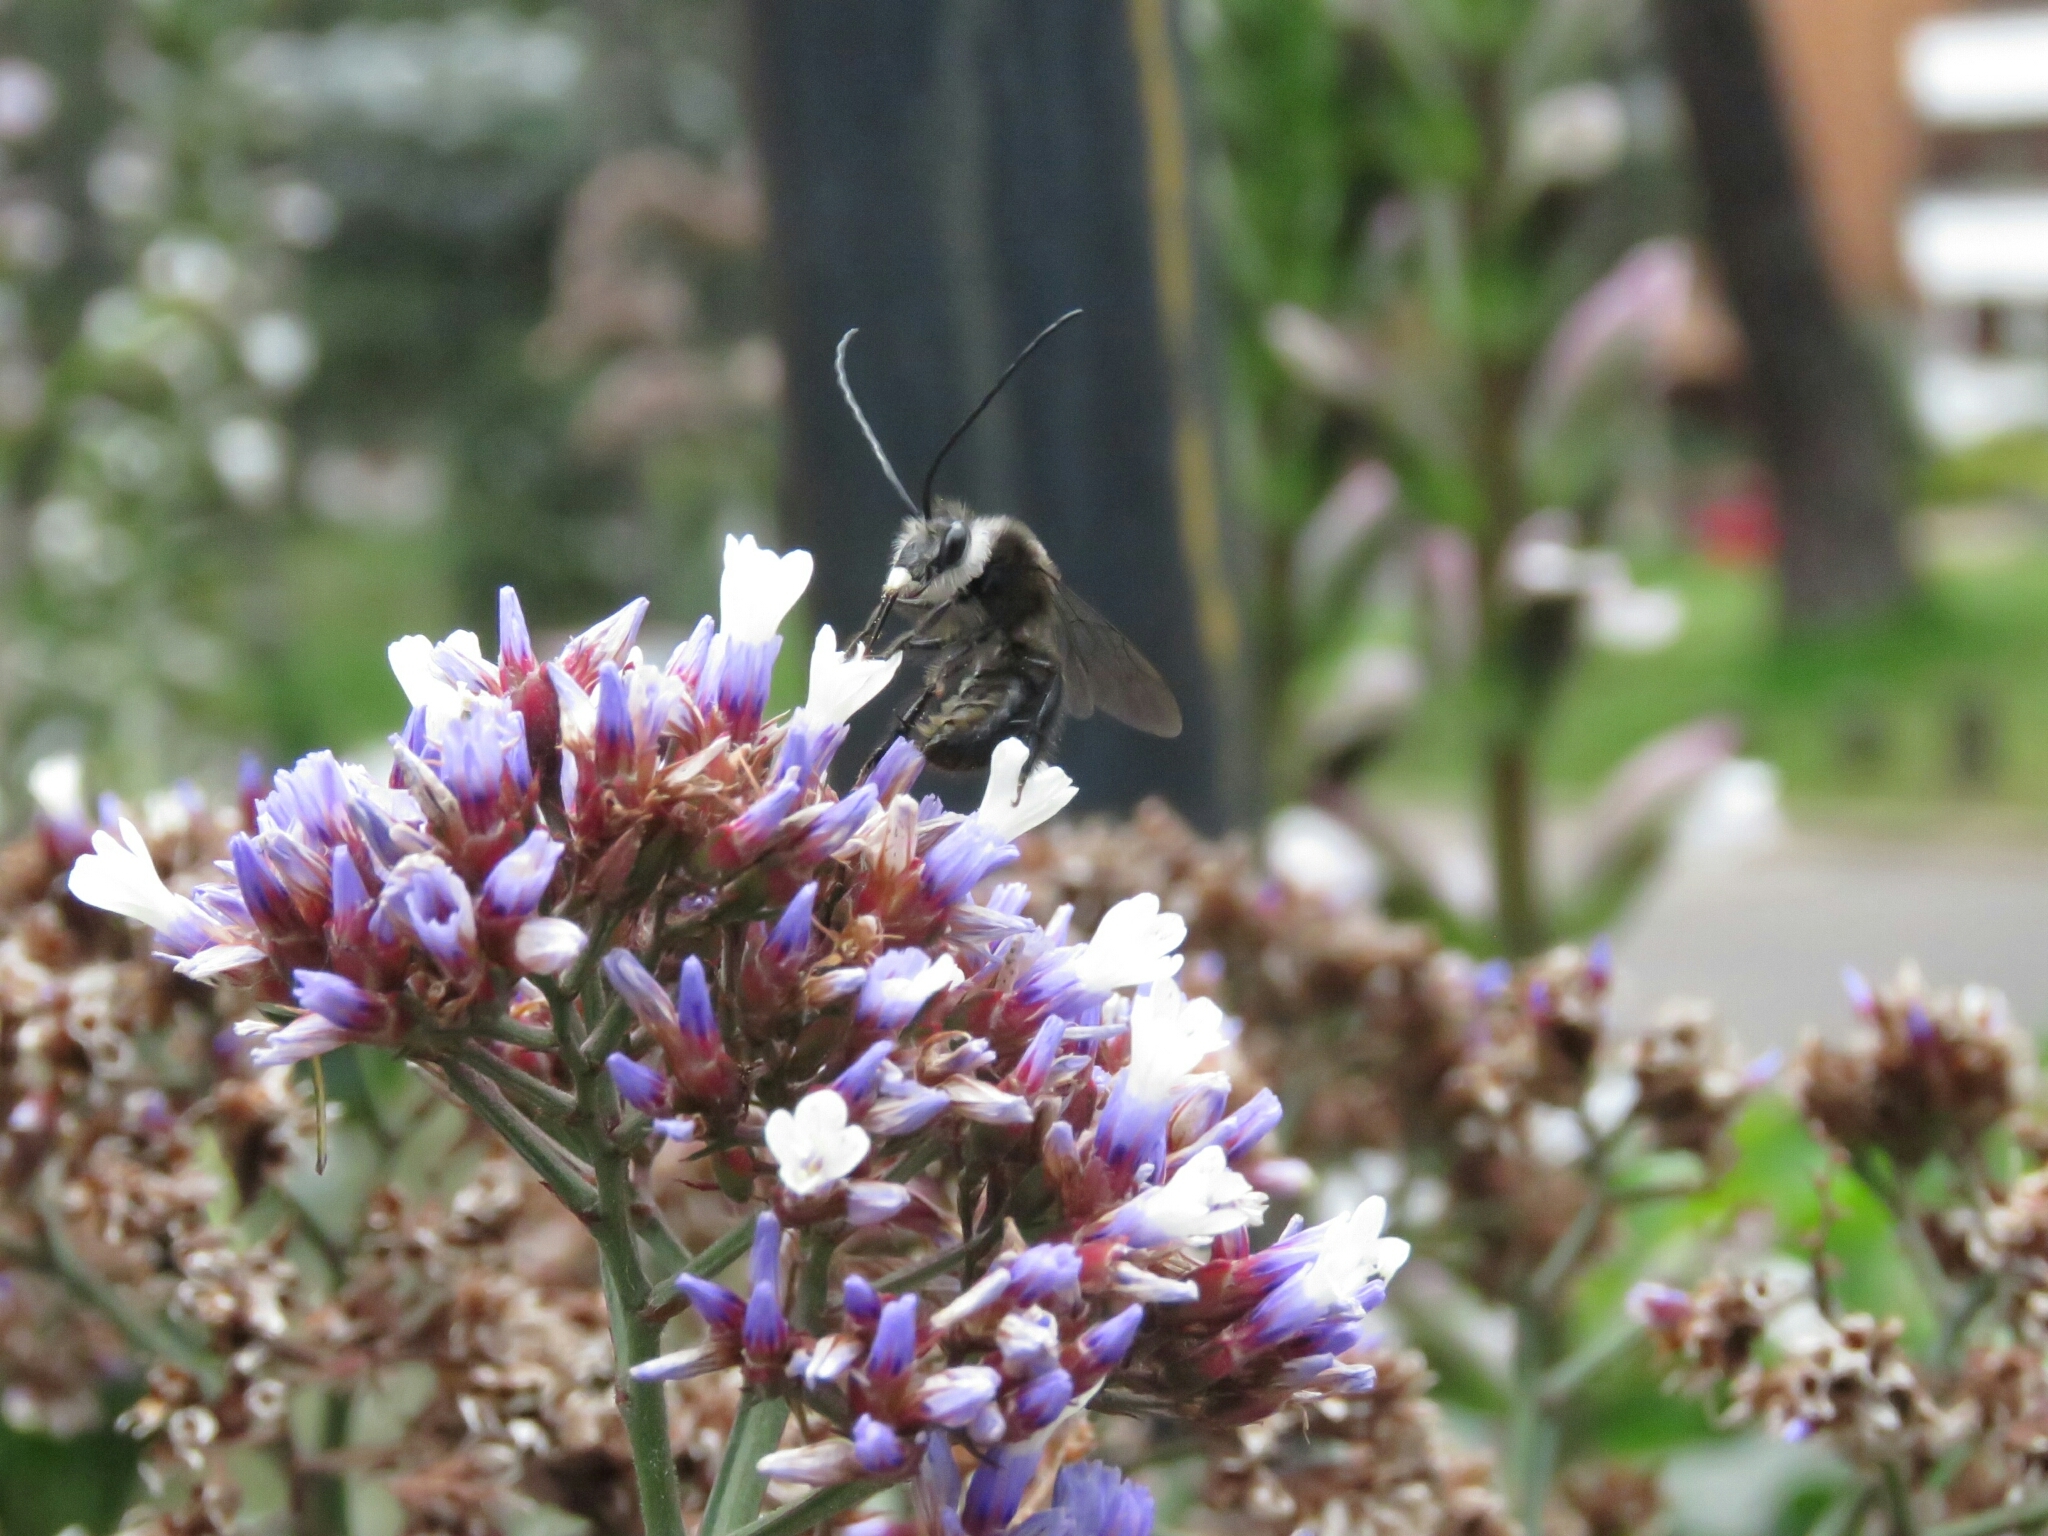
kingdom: Animalia
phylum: Arthropoda
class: Insecta
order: Hymenoptera
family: Apidae
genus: Thygater
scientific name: Thygater aethiops
